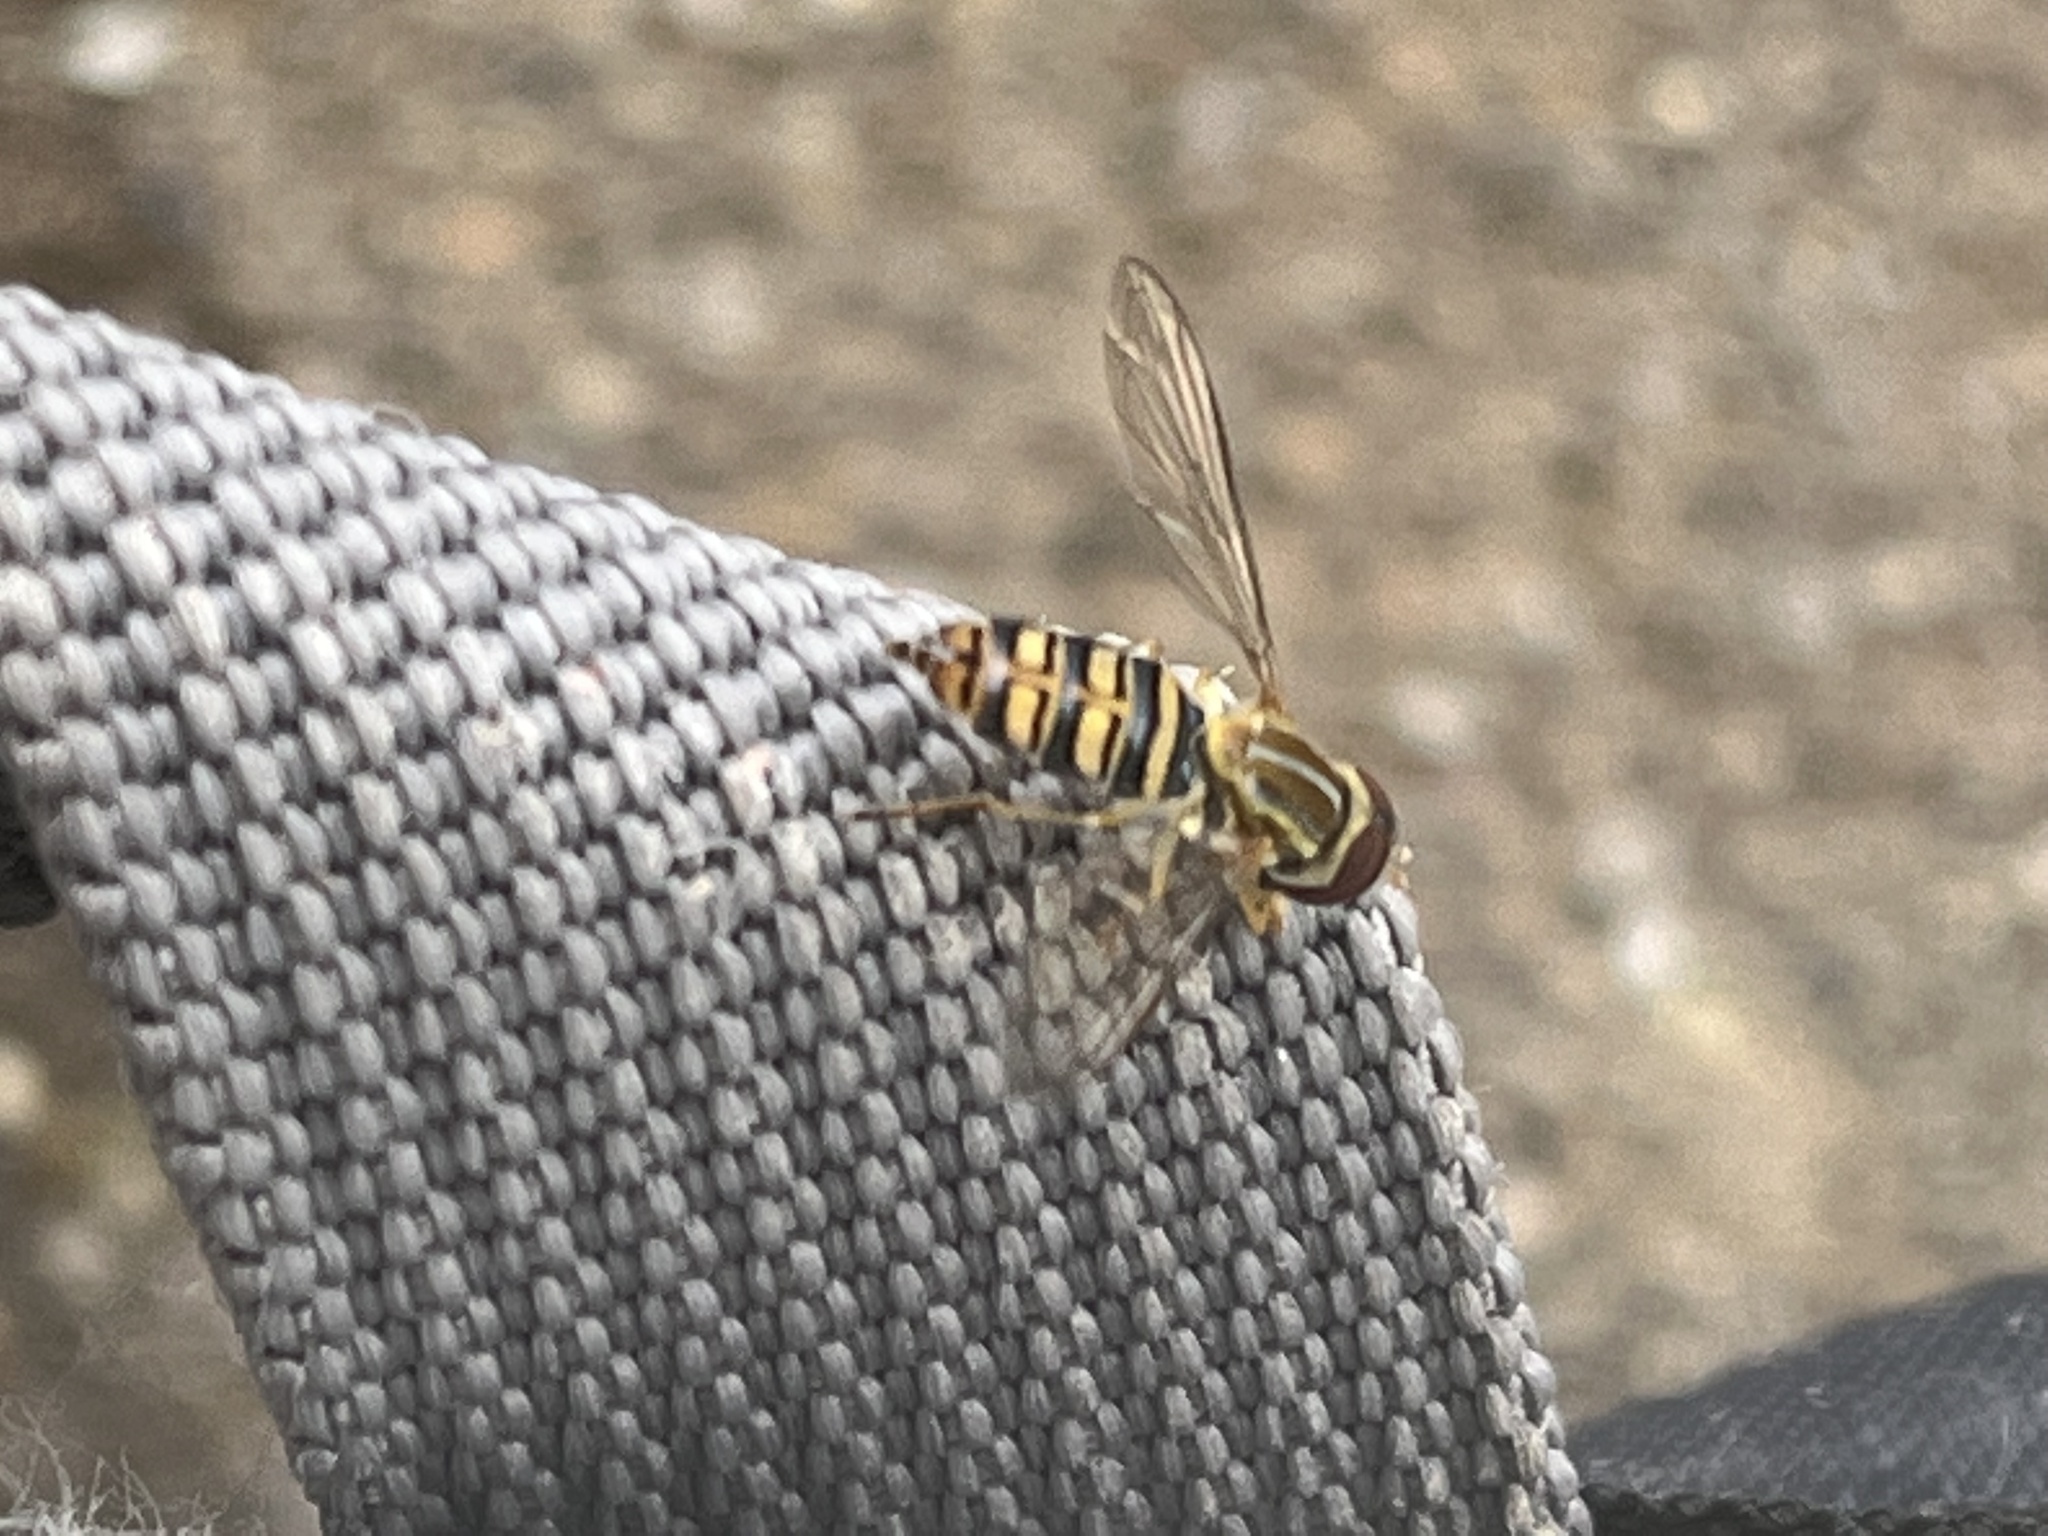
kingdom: Animalia
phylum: Arthropoda
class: Insecta
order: Diptera
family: Syrphidae
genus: Toxomerus
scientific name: Toxomerus politus
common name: Maize calligrapher
